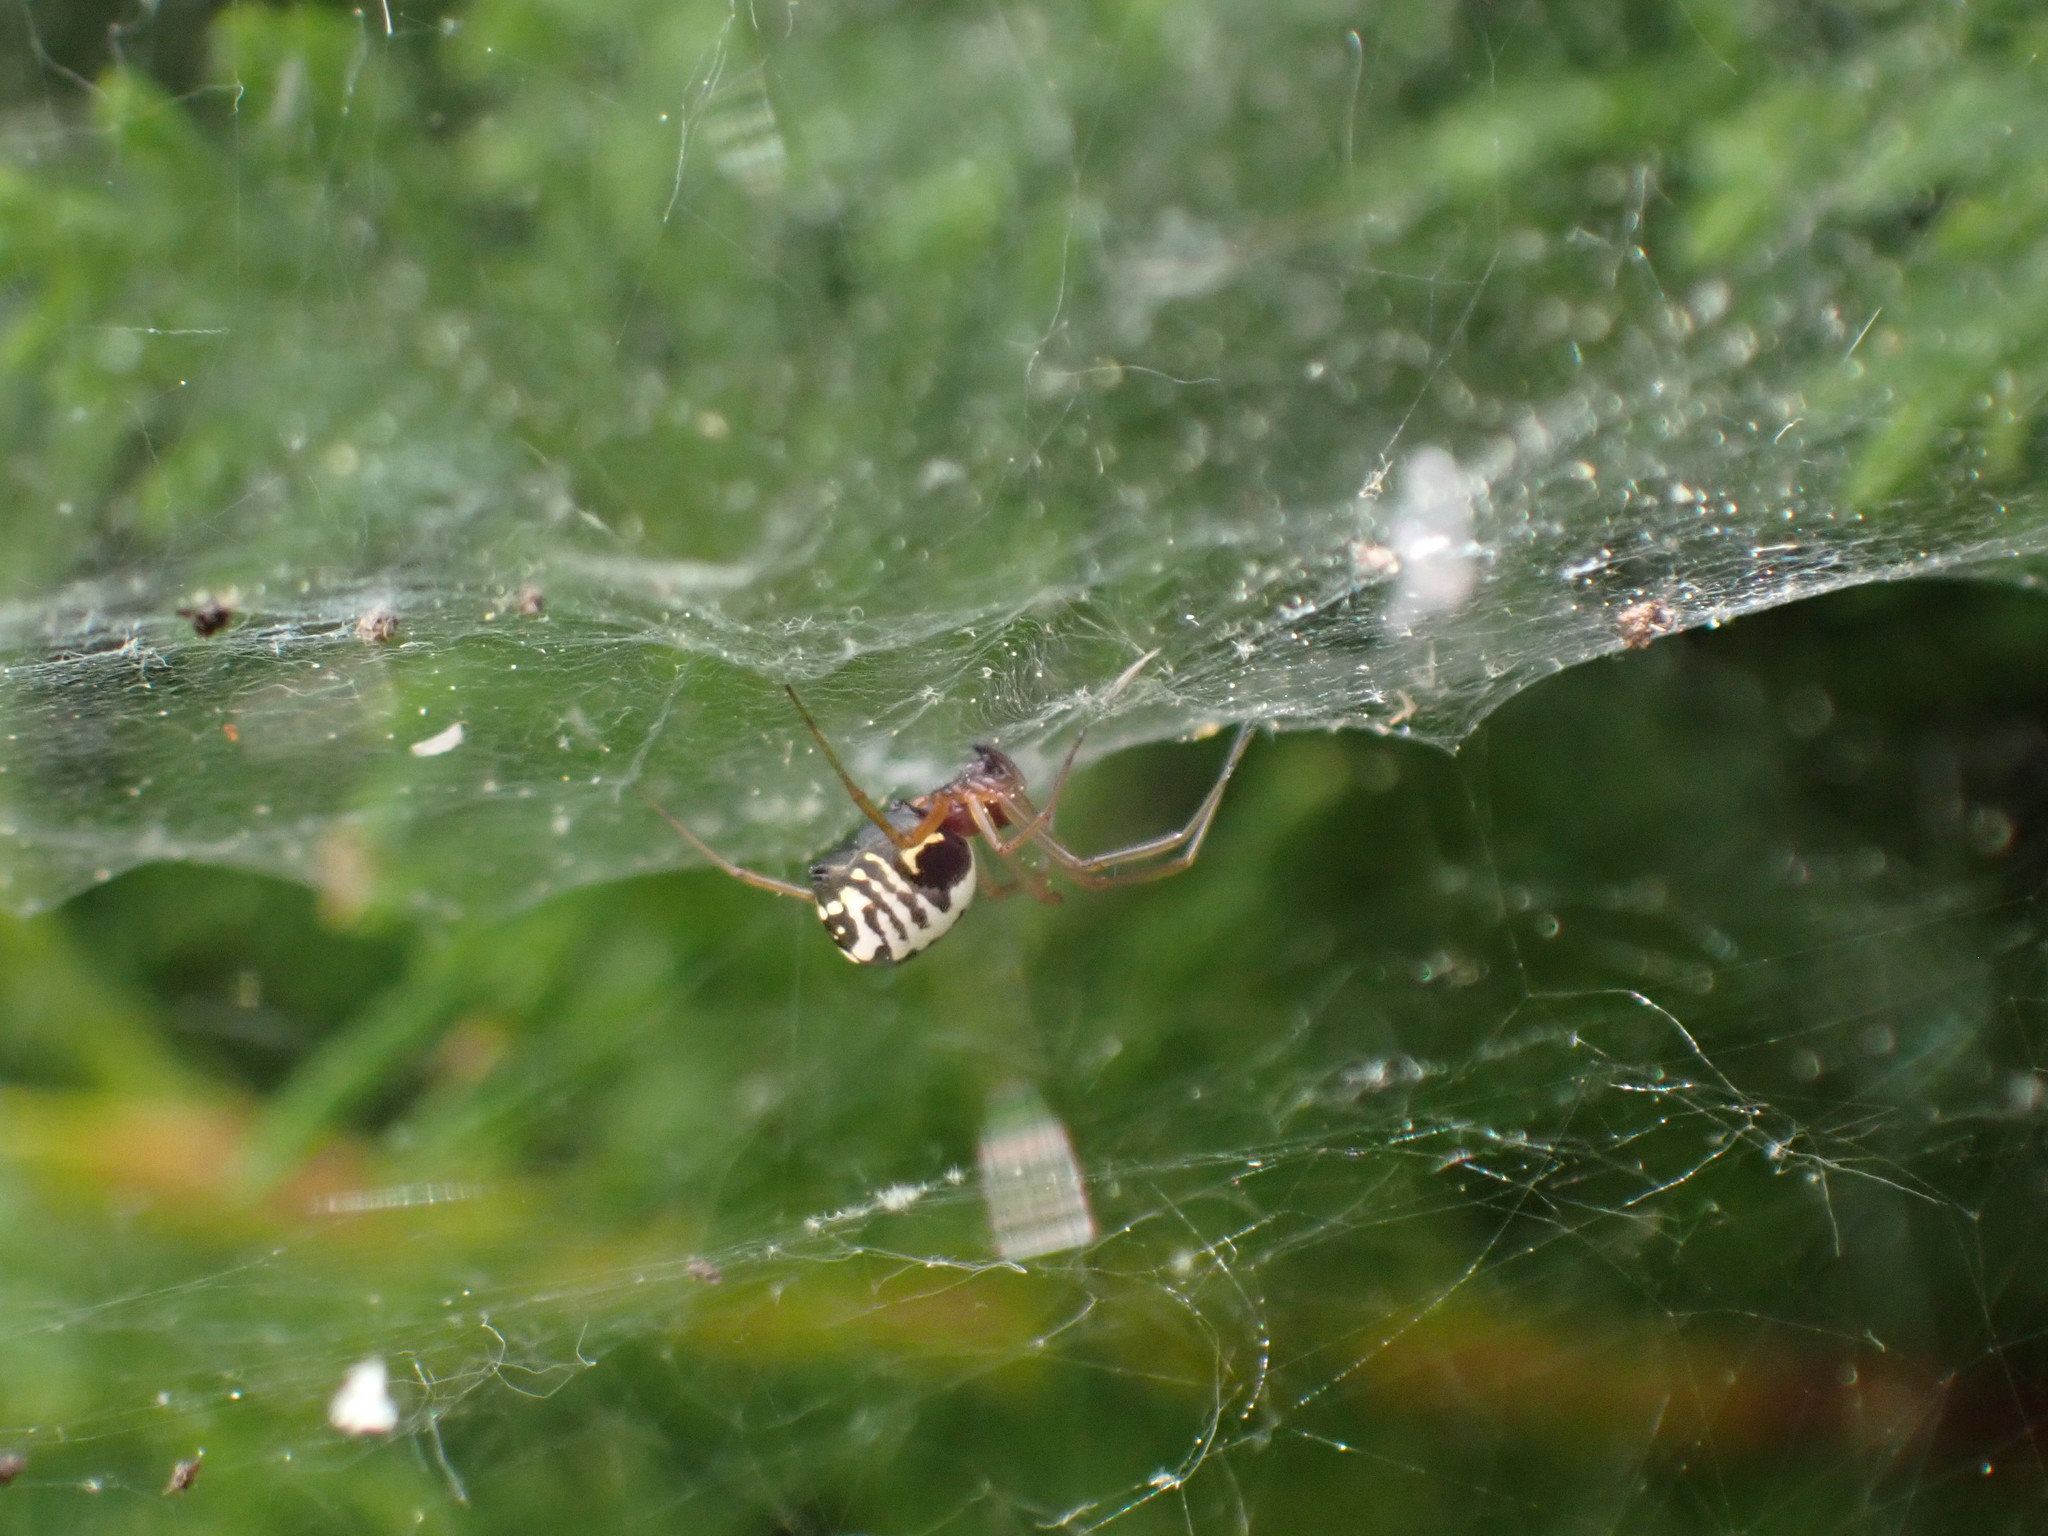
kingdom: Animalia
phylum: Arthropoda
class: Arachnida
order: Araneae
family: Linyphiidae
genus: Frontinellina
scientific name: Frontinellina frutetorum
